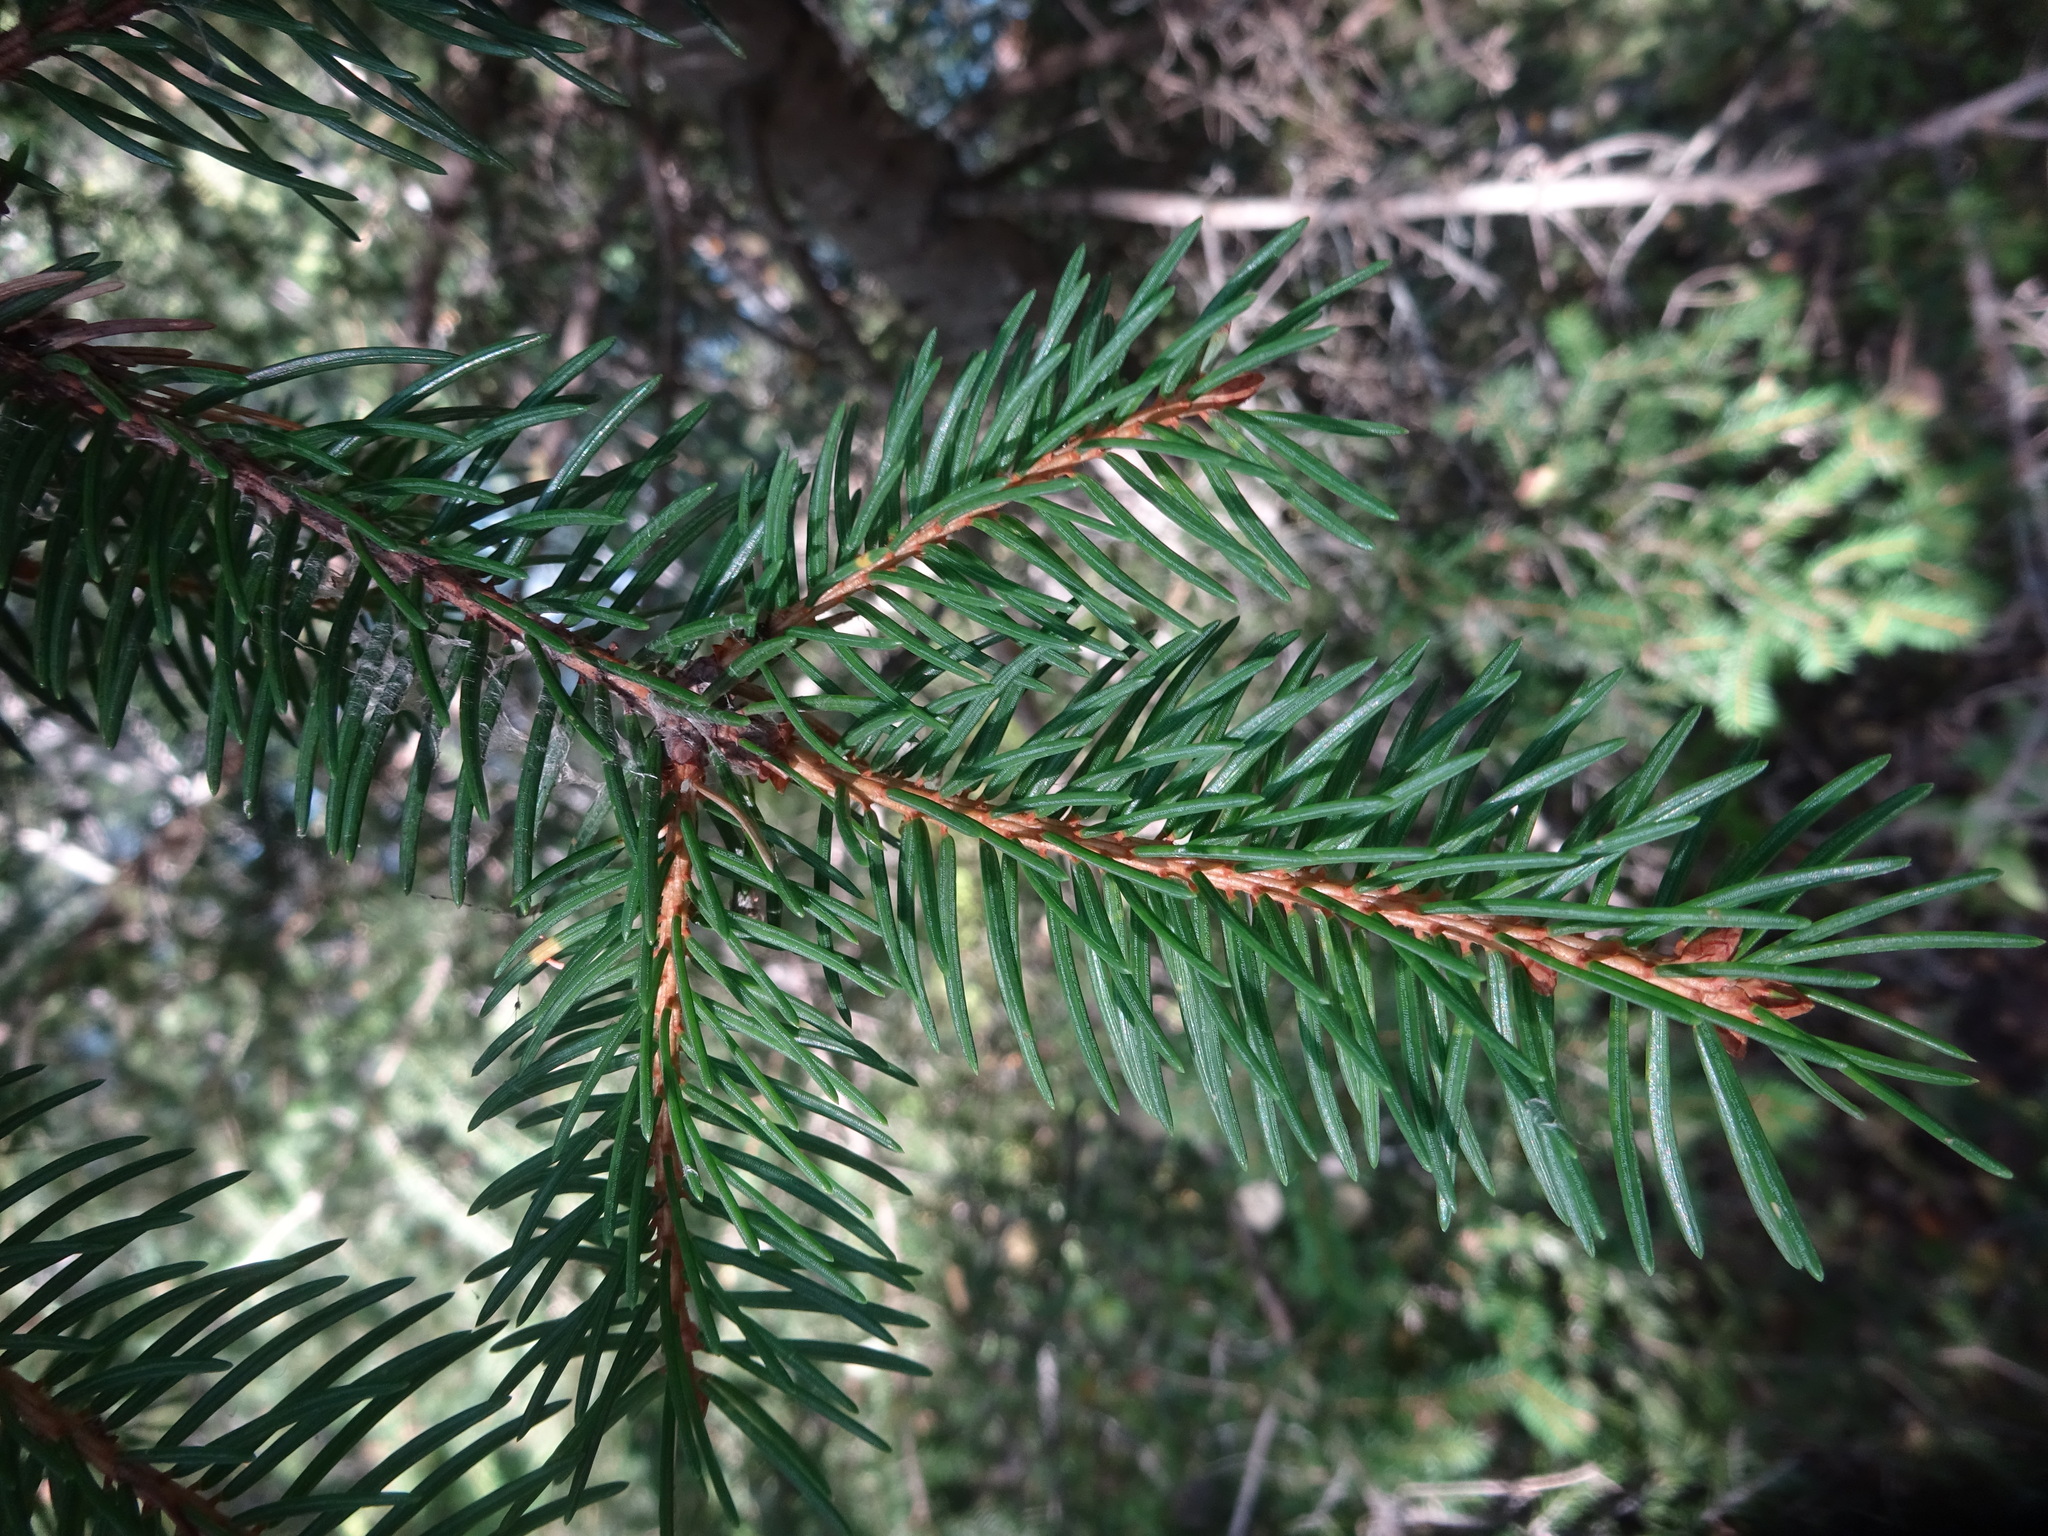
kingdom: Plantae
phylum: Tracheophyta
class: Pinopsida
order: Pinales
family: Pinaceae
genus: Picea
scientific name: Picea abies
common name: Norway spruce
